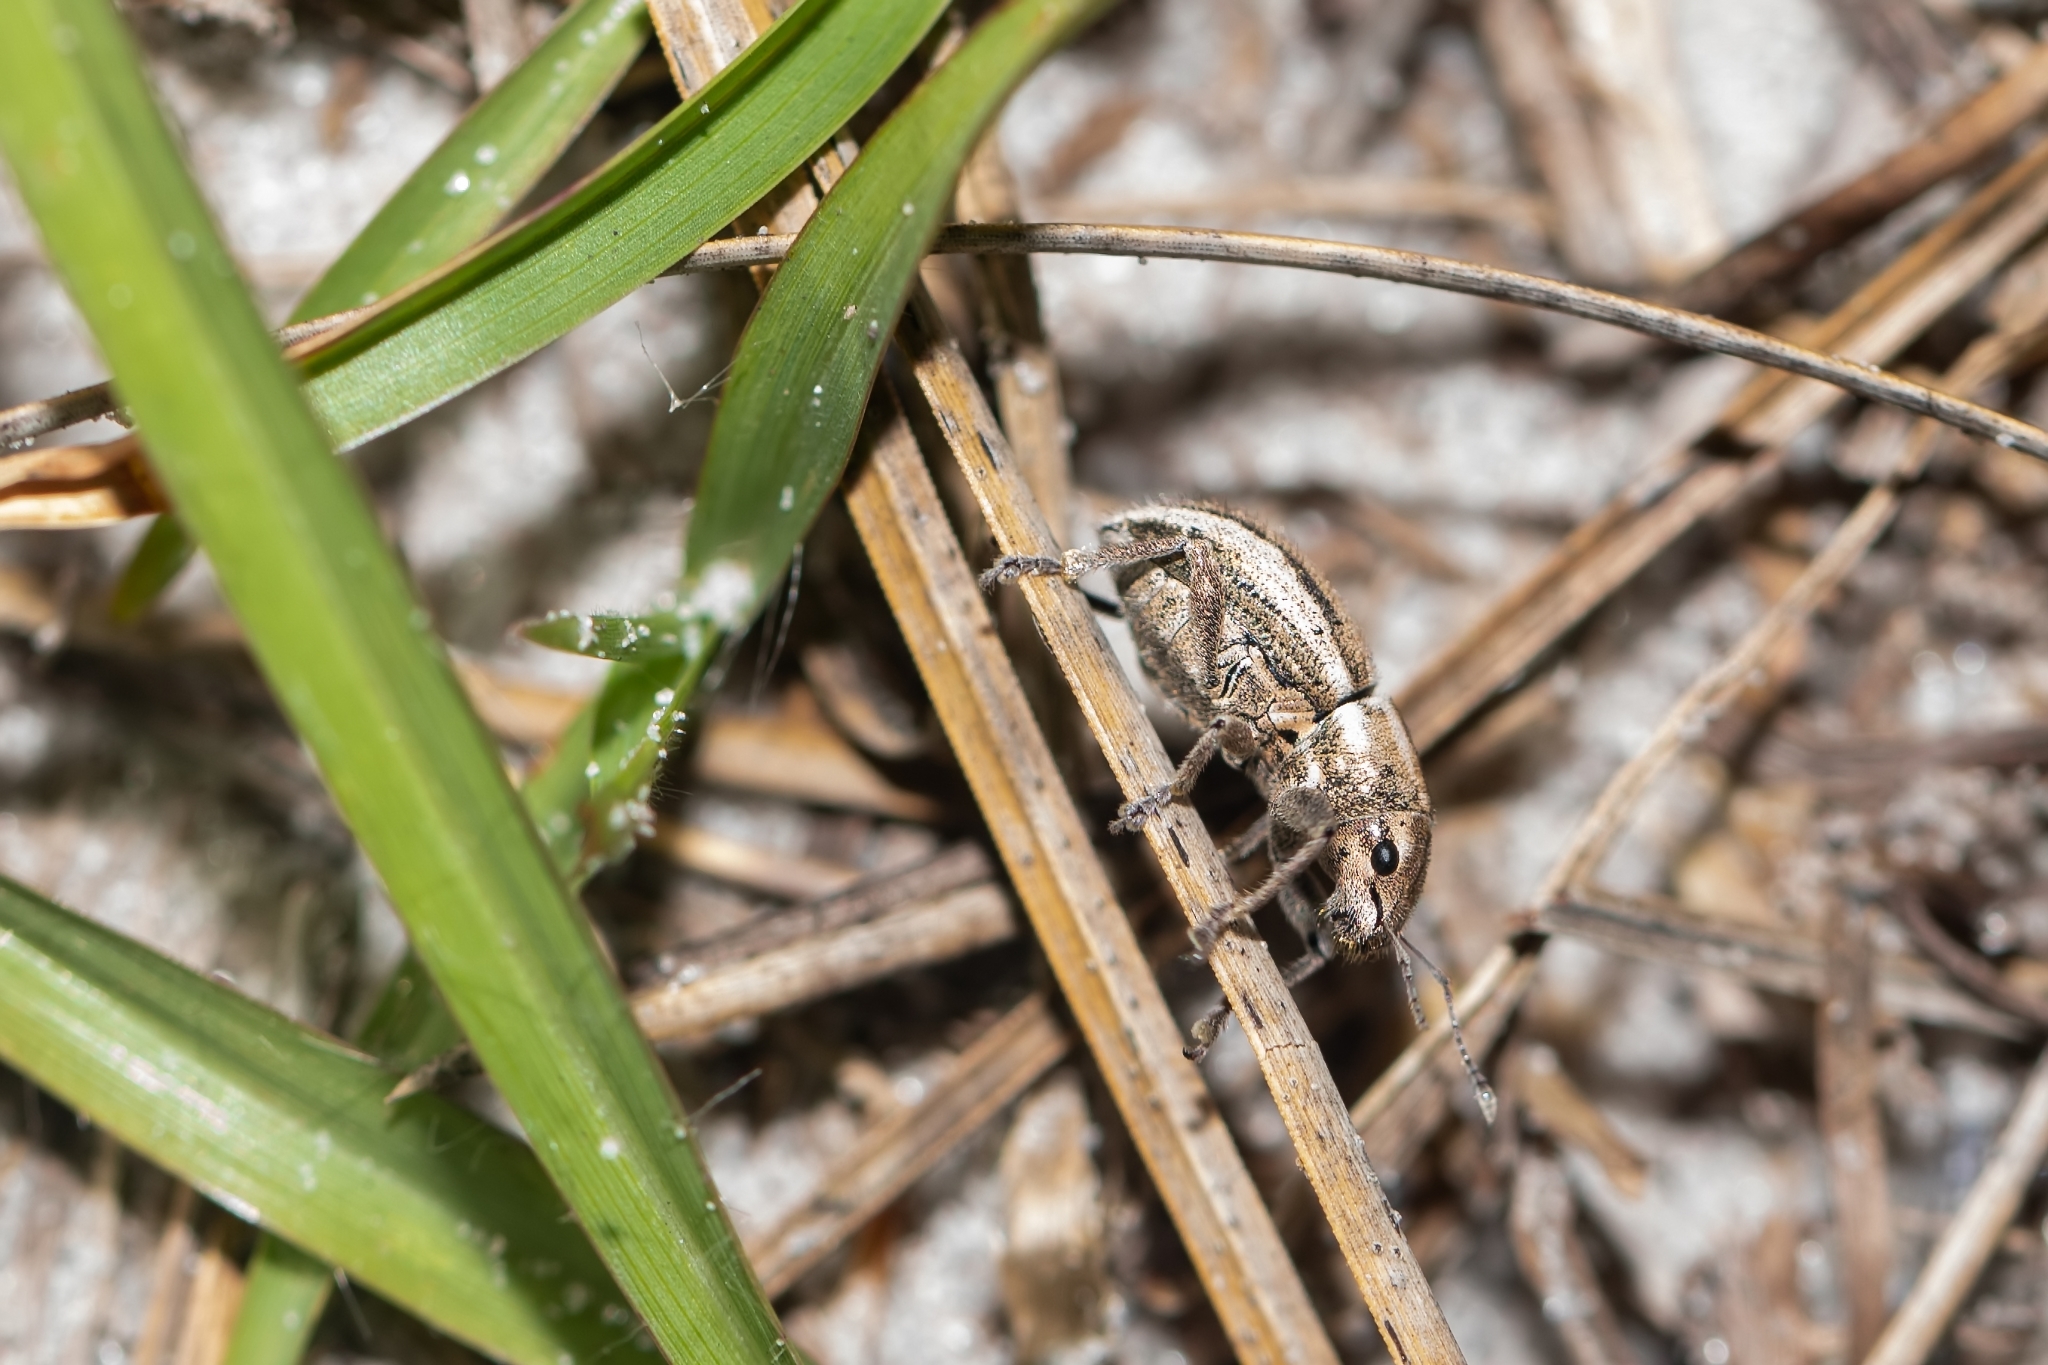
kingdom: Animalia
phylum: Arthropoda
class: Insecta
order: Coleoptera
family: Curculionidae
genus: Naupactus
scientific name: Naupactus peregrinus
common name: Whitefringed beetle
